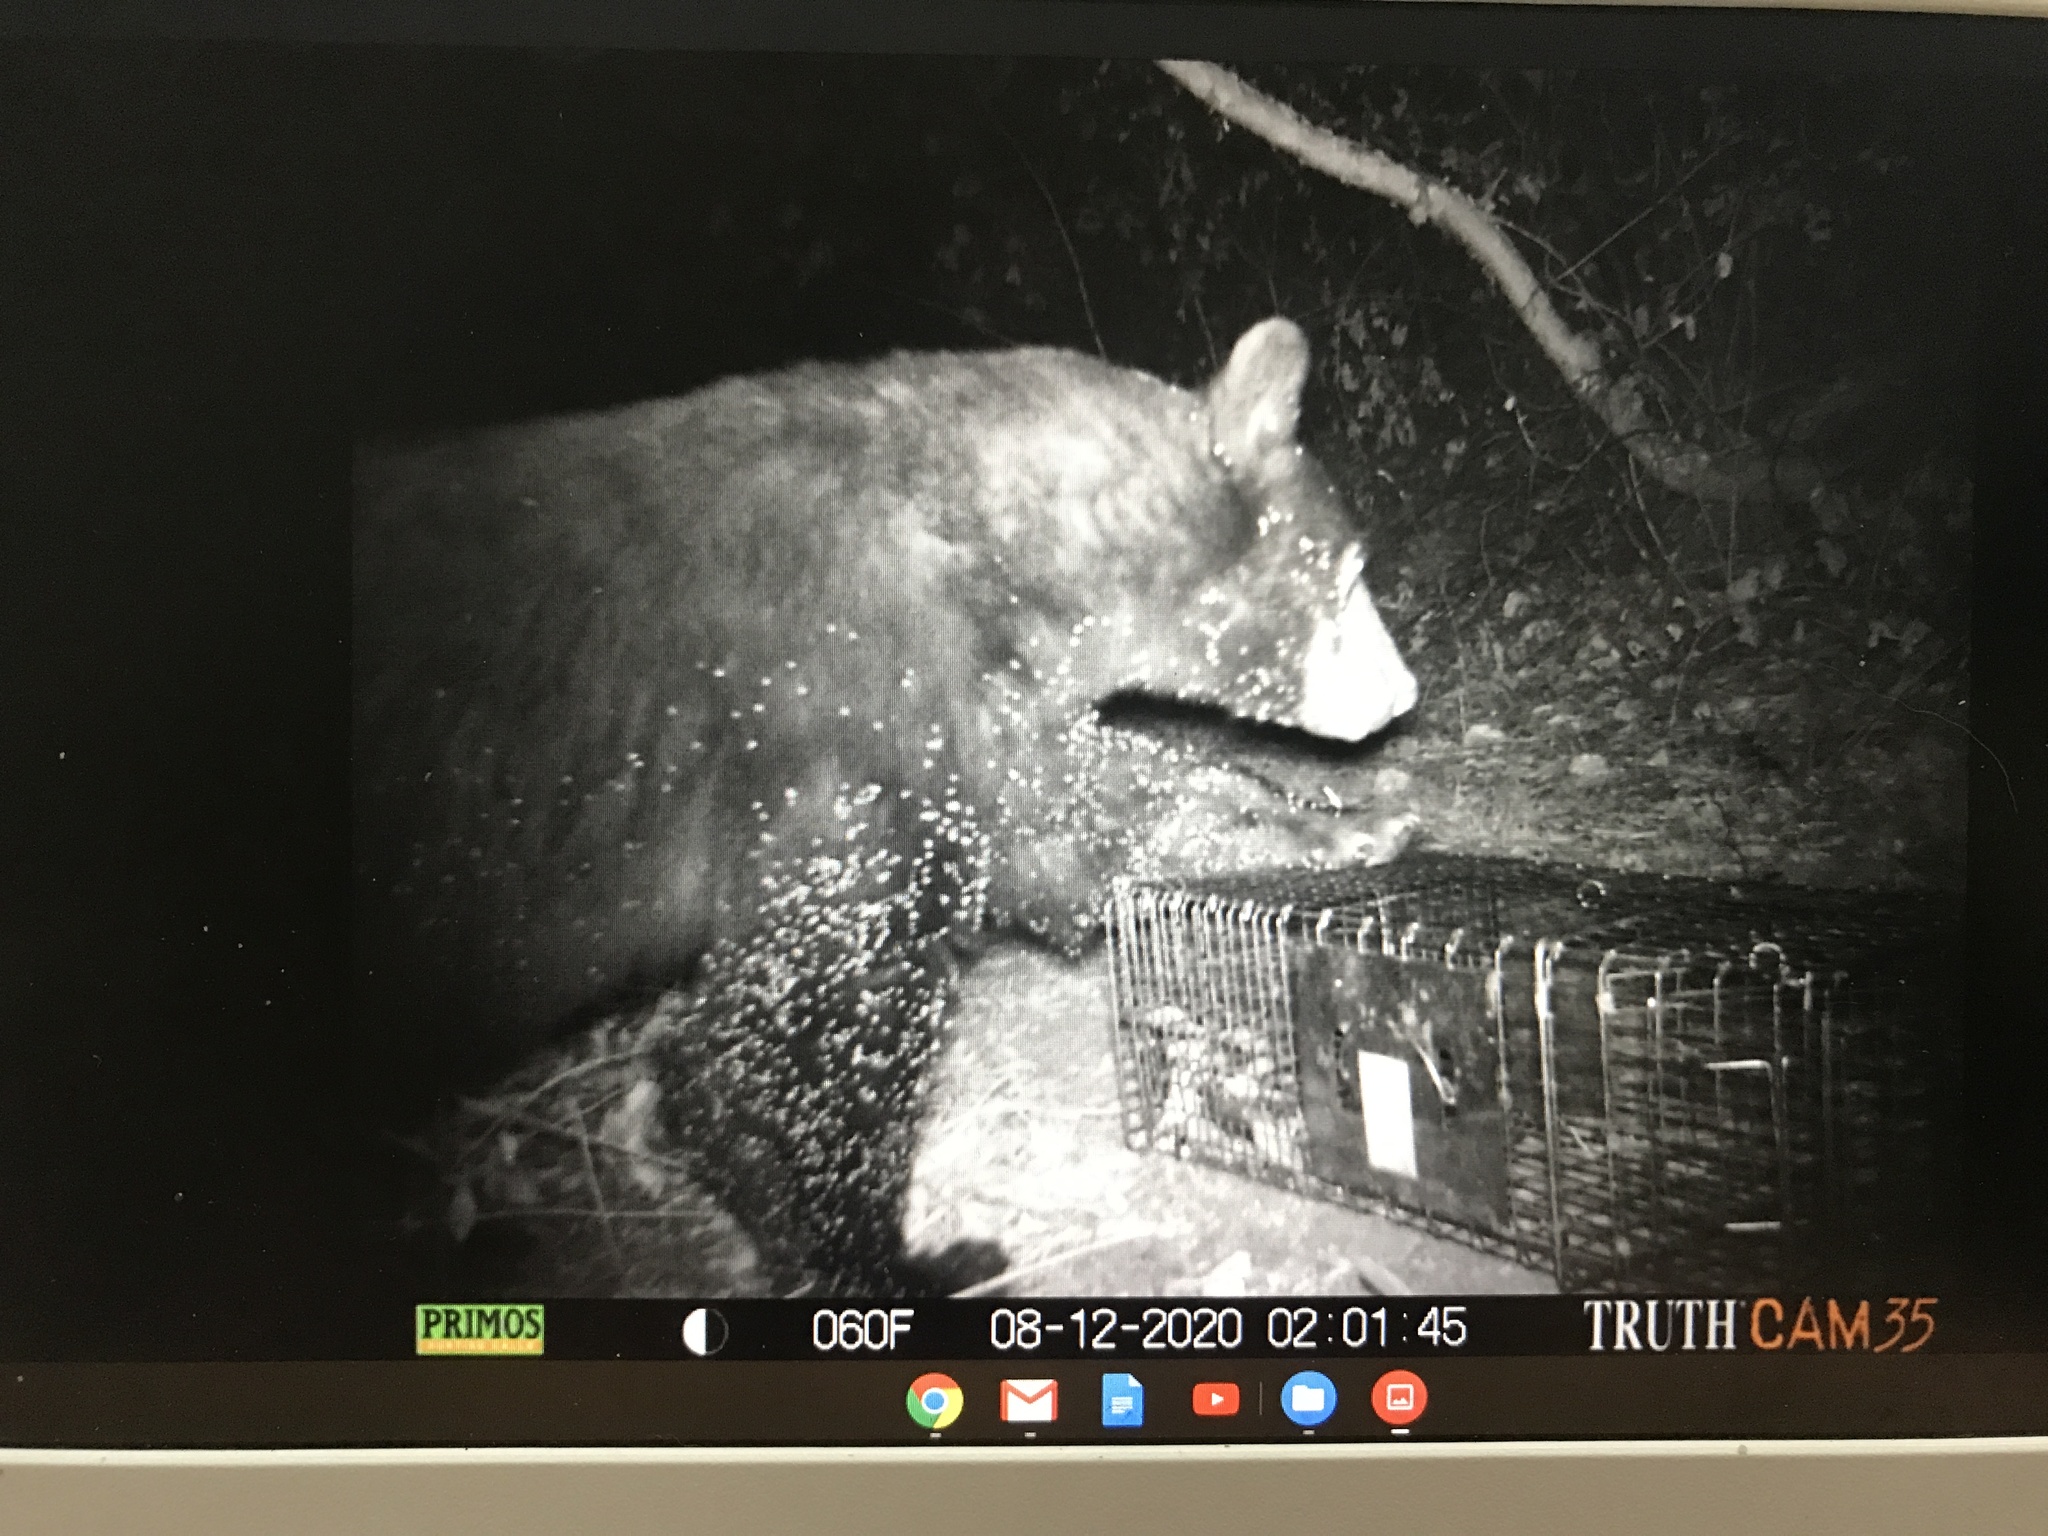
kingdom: Animalia
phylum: Chordata
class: Mammalia
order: Carnivora
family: Ursidae
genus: Ursus
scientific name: Ursus americanus
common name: American black bear
